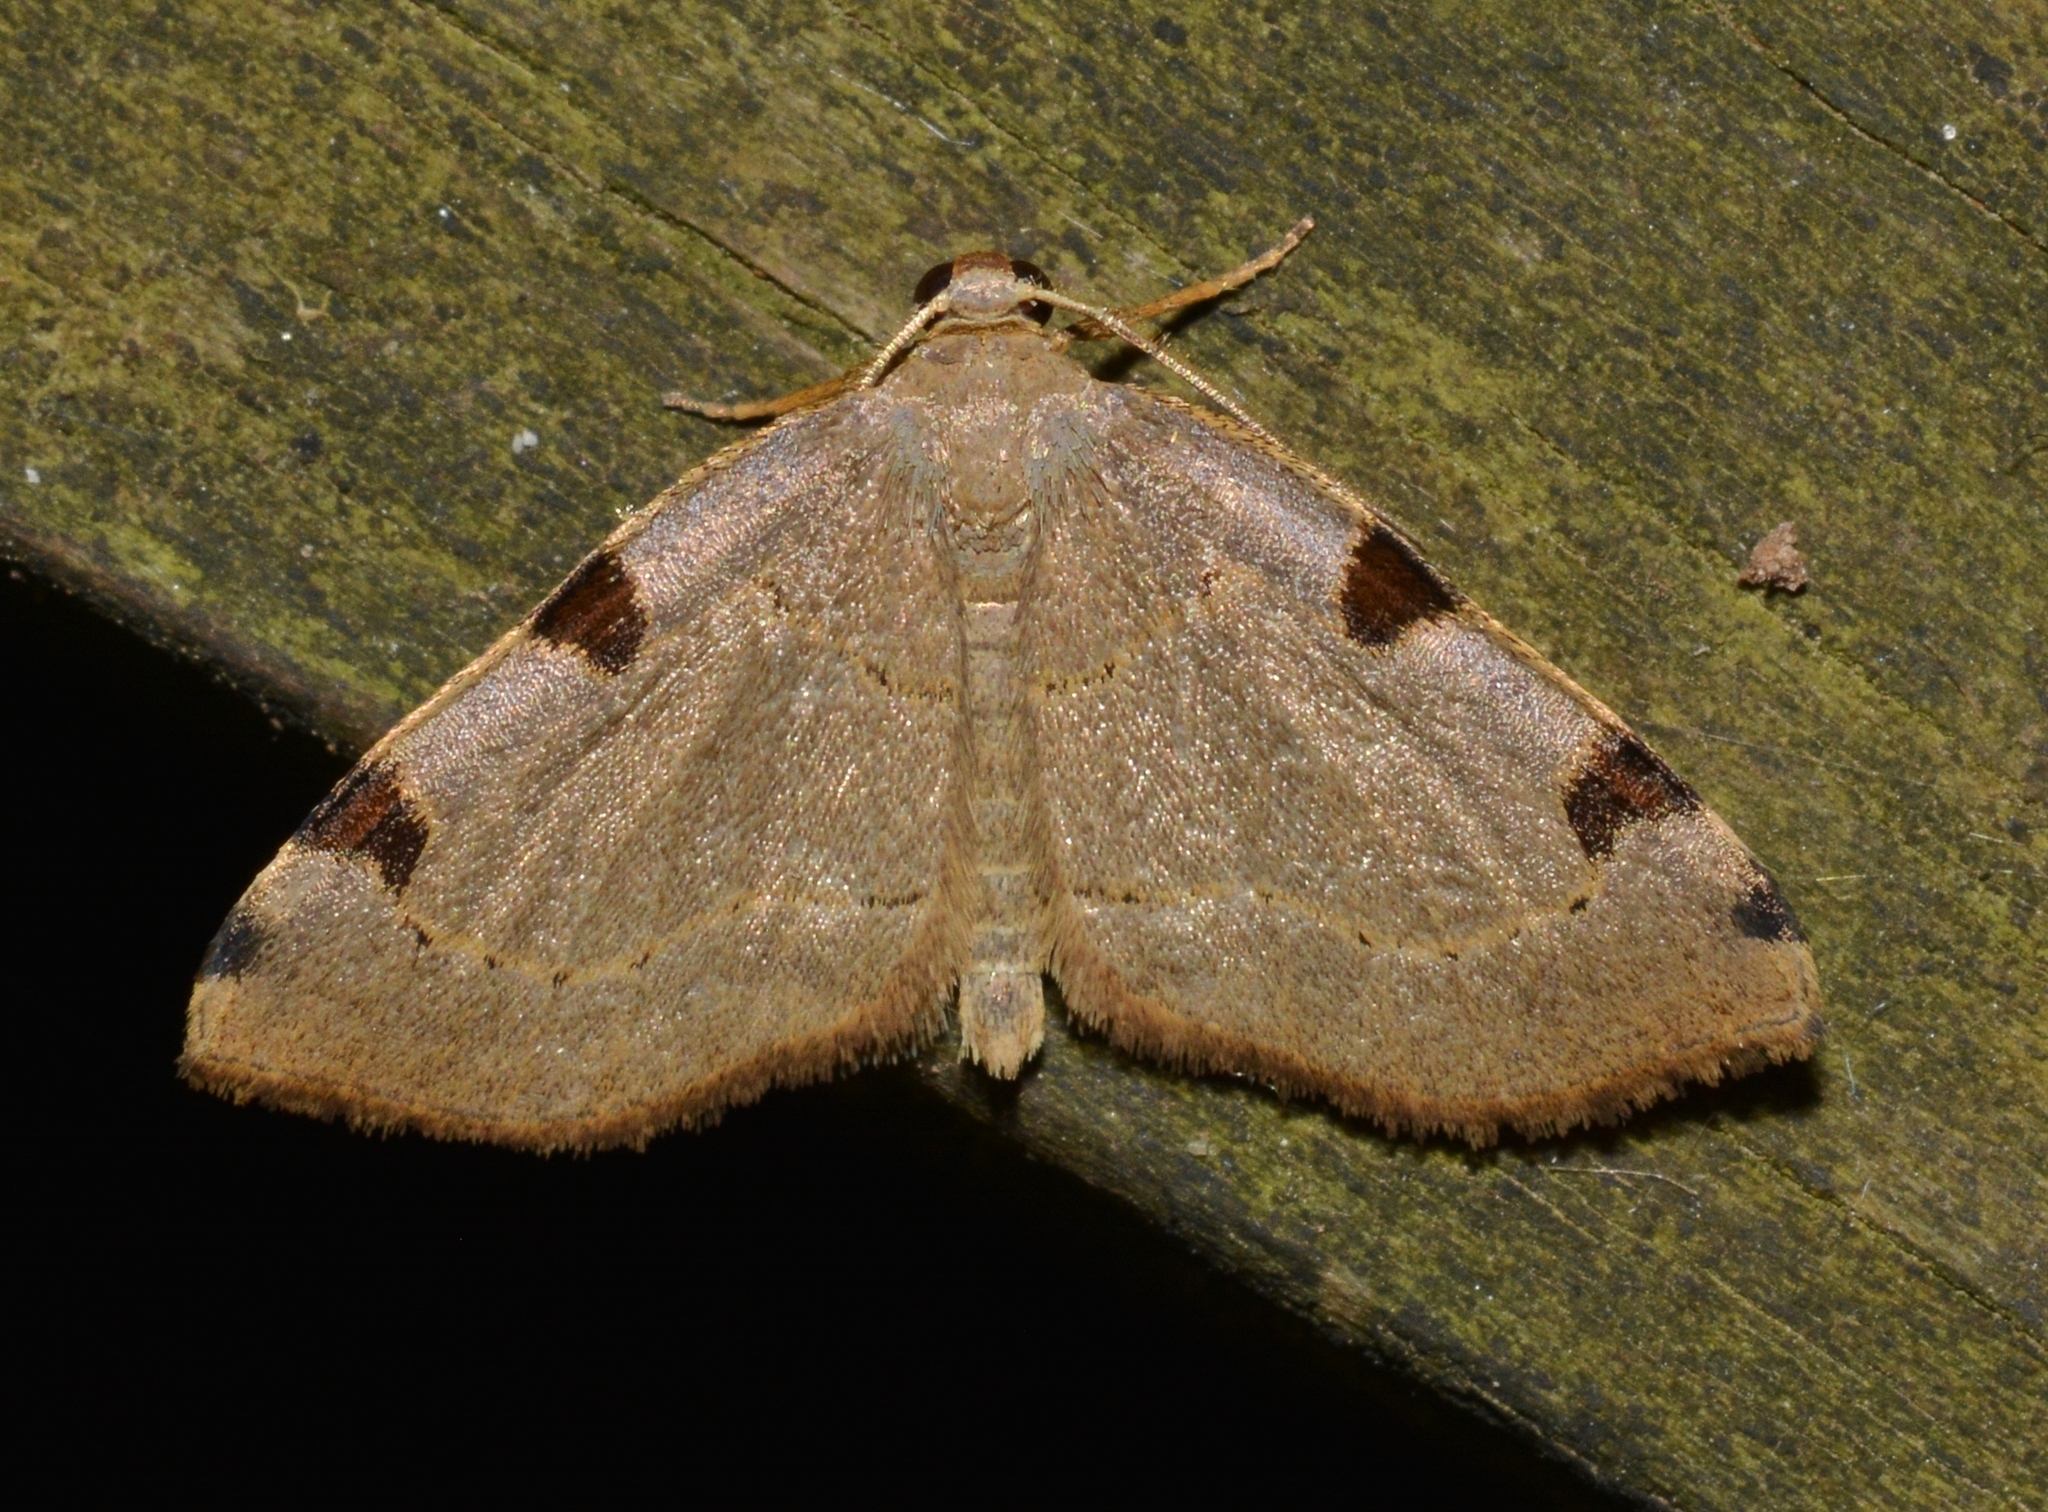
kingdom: Animalia
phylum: Arthropoda
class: Insecta
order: Lepidoptera
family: Geometridae
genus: Heterophleps
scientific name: Heterophleps triguttaria
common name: Three-spotted fillip
